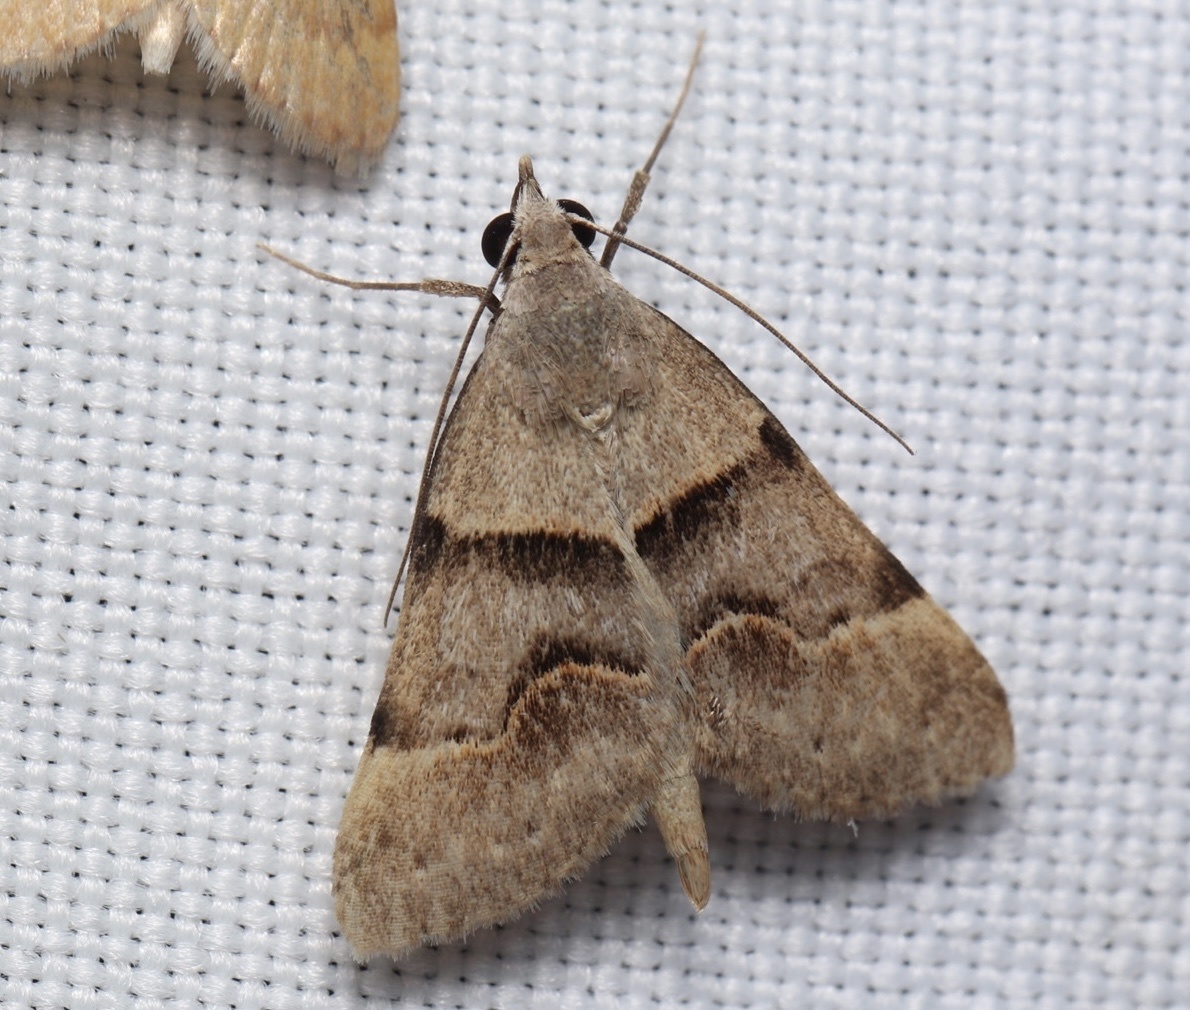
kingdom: Animalia
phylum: Arthropoda
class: Insecta
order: Lepidoptera
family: Erebidae
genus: Hemeroplanis
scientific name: Hemeroplanis incusalis
